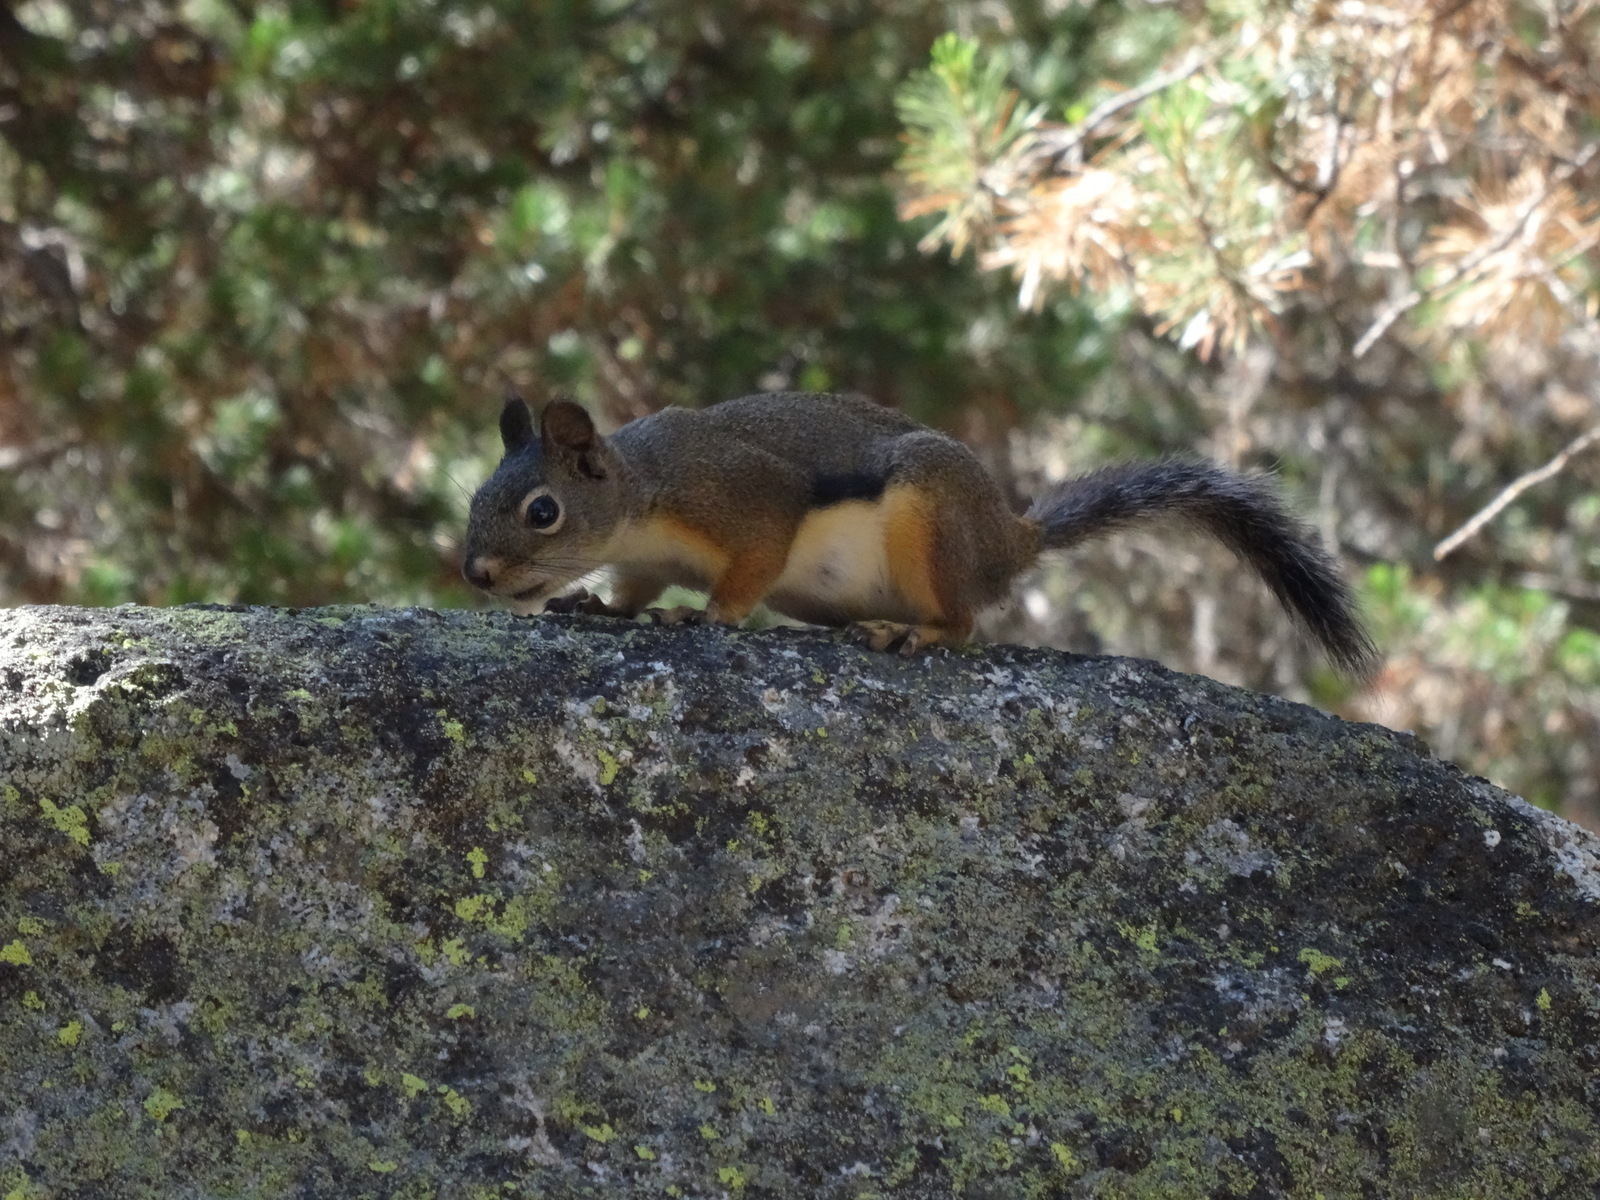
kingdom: Animalia
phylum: Chordata
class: Mammalia
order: Rodentia
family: Sciuridae
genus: Tamiasciurus
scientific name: Tamiasciurus douglasii
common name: Douglas's squirrel
